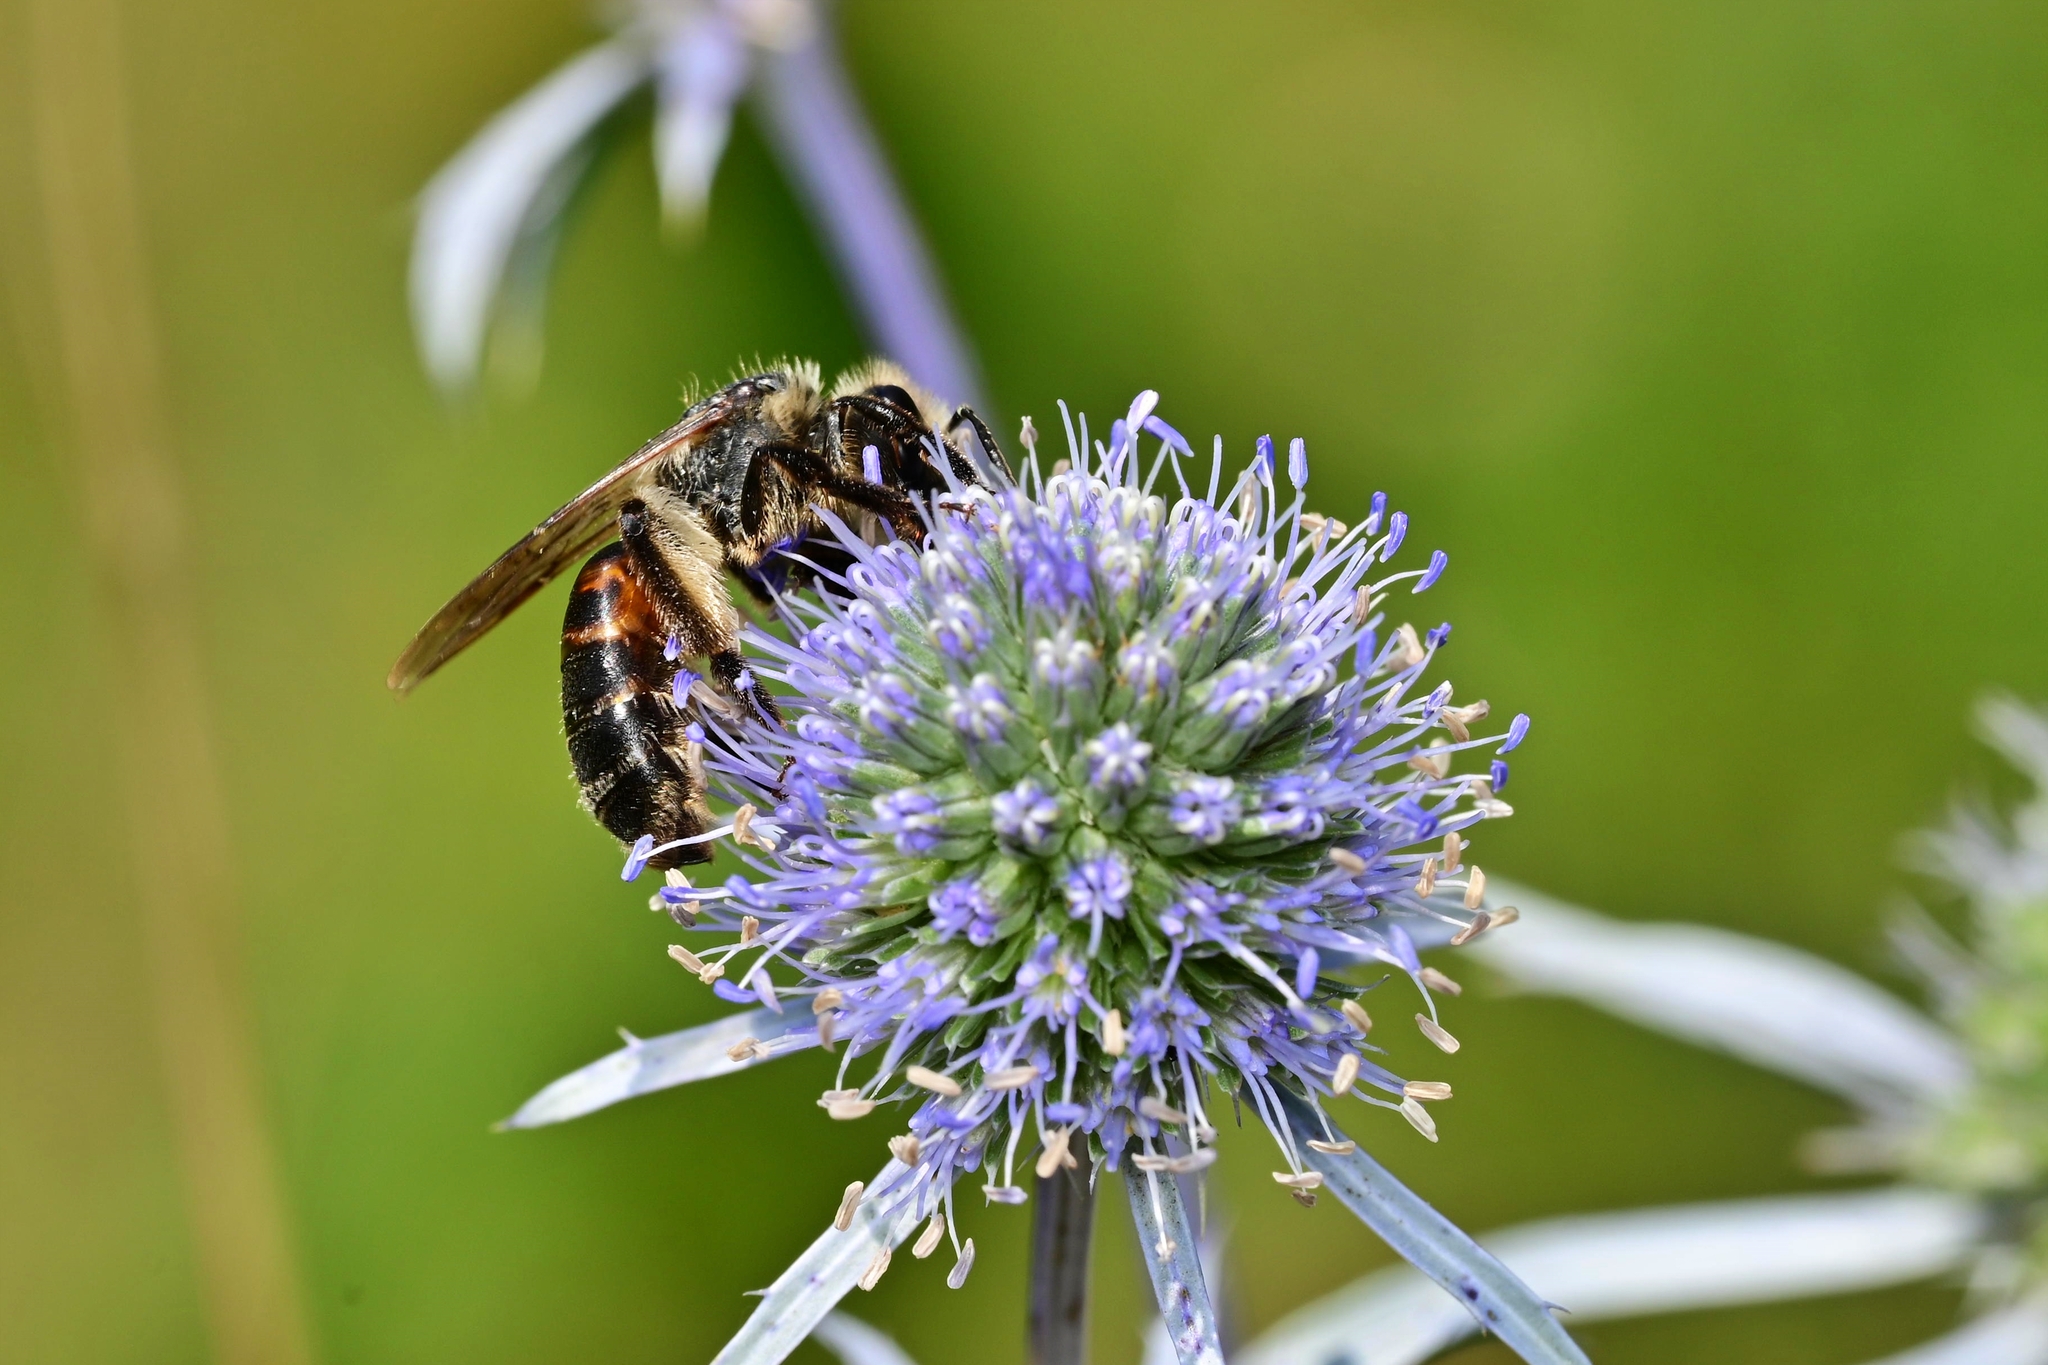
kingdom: Animalia
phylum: Arthropoda
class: Insecta
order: Hymenoptera
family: Andrenidae
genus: Andrena
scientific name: Andrena rosae
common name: Perkin's mining bee
